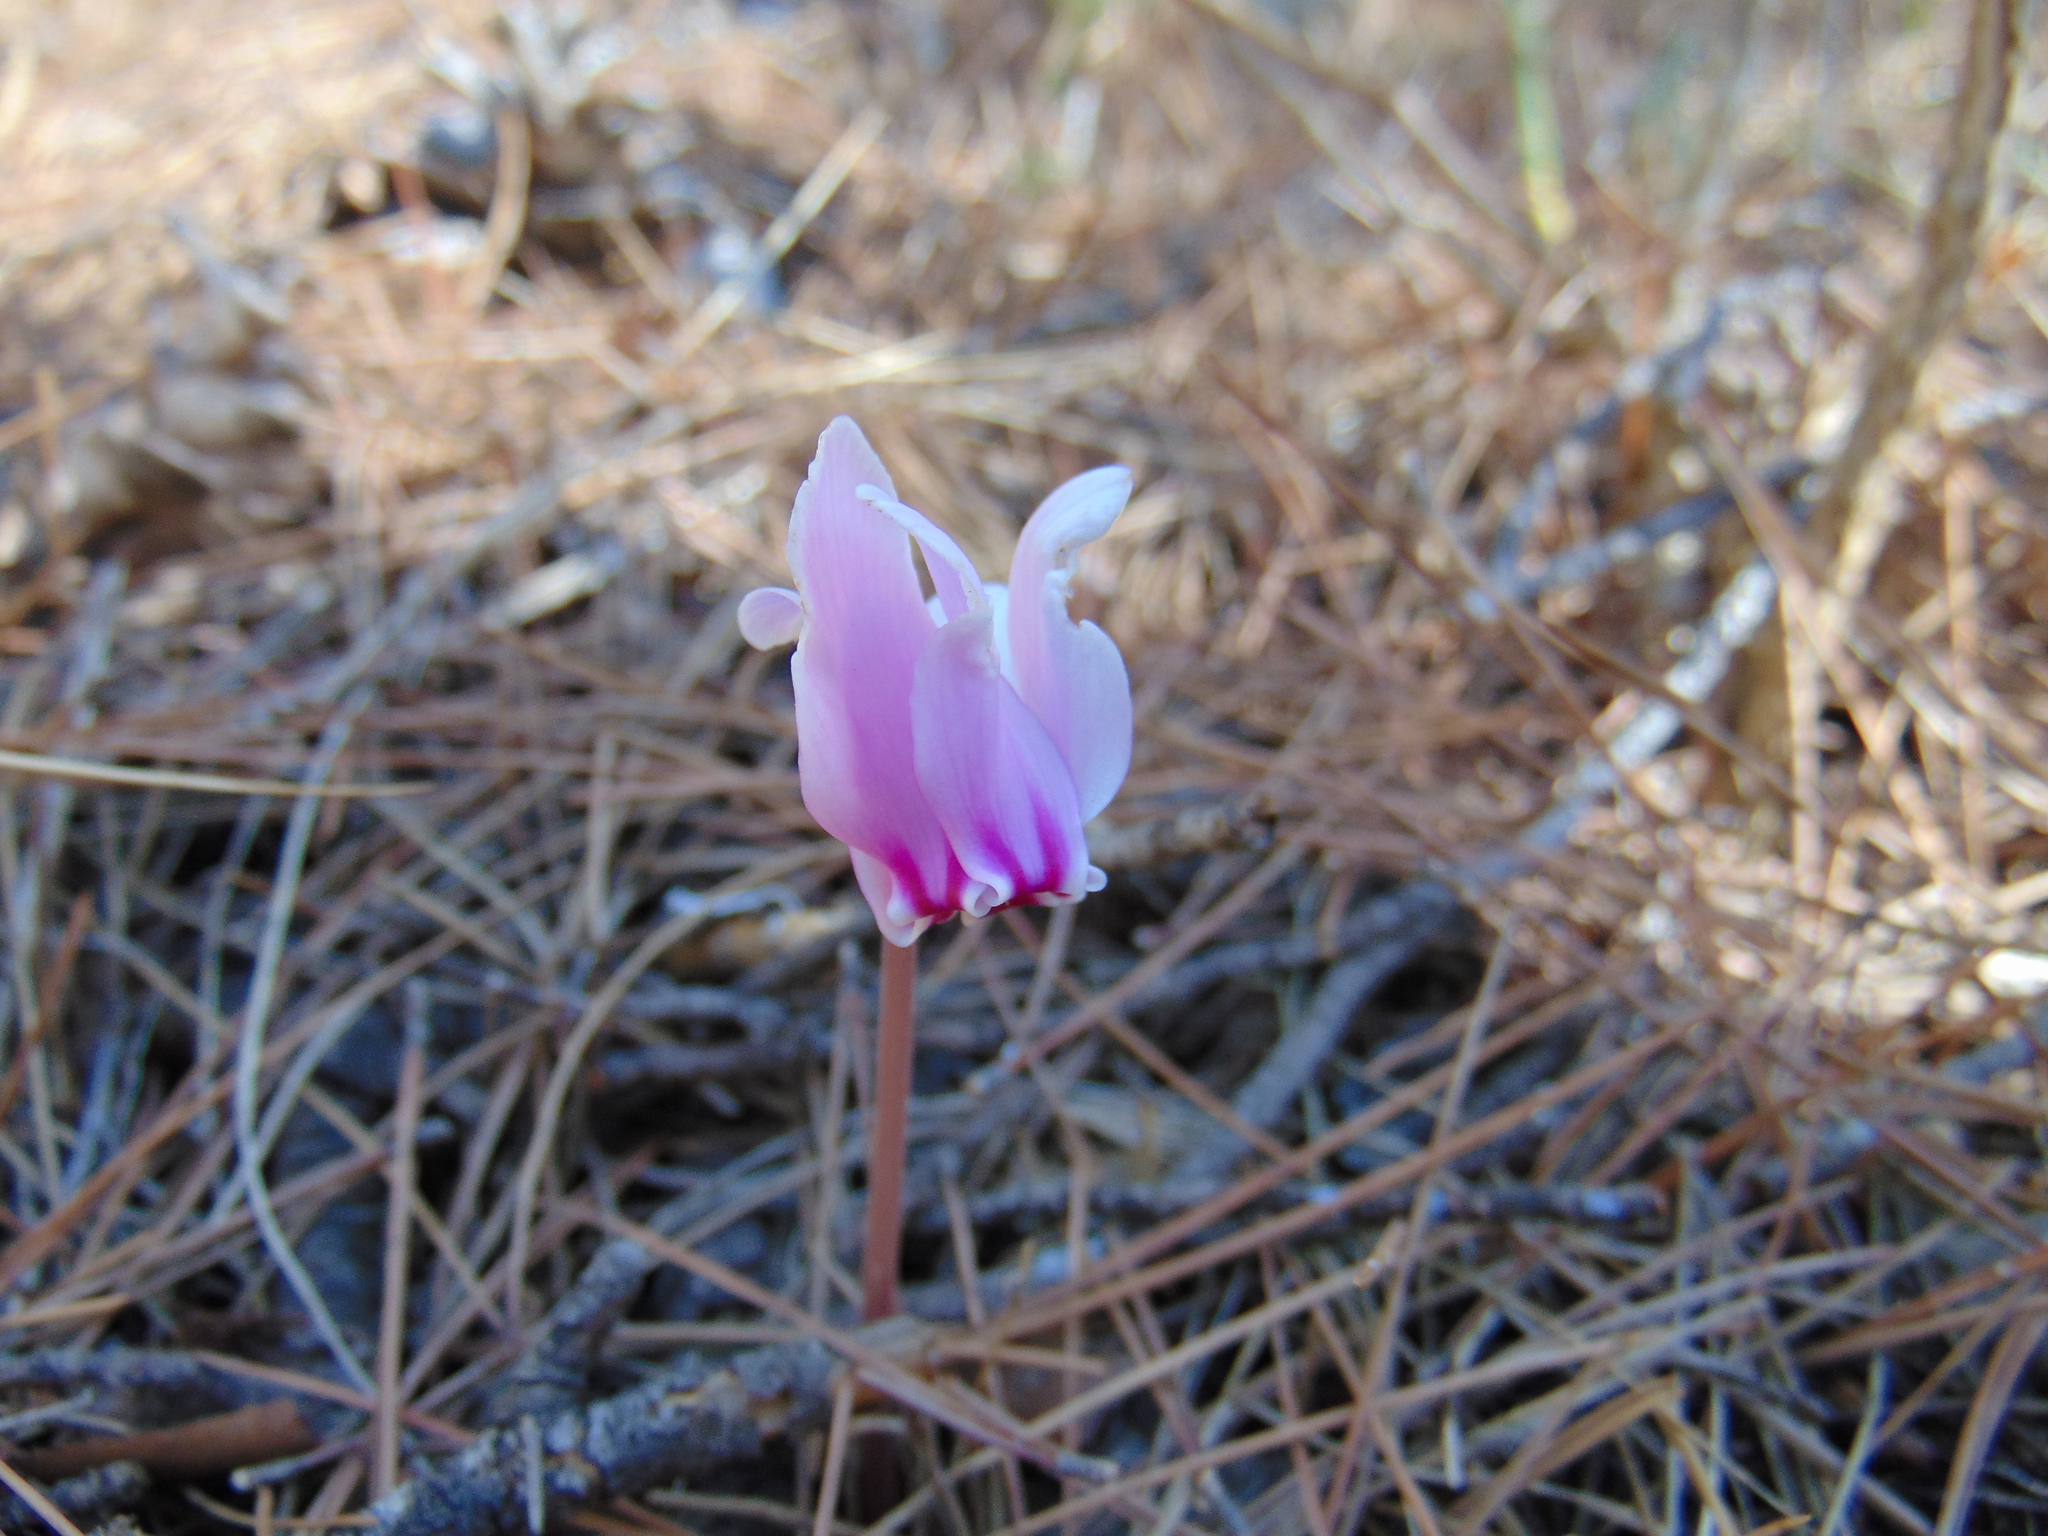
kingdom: Plantae
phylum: Tracheophyta
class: Magnoliopsida
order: Ericales
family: Primulaceae
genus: Cyclamen
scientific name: Cyclamen hederifolium
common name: Sowbread
